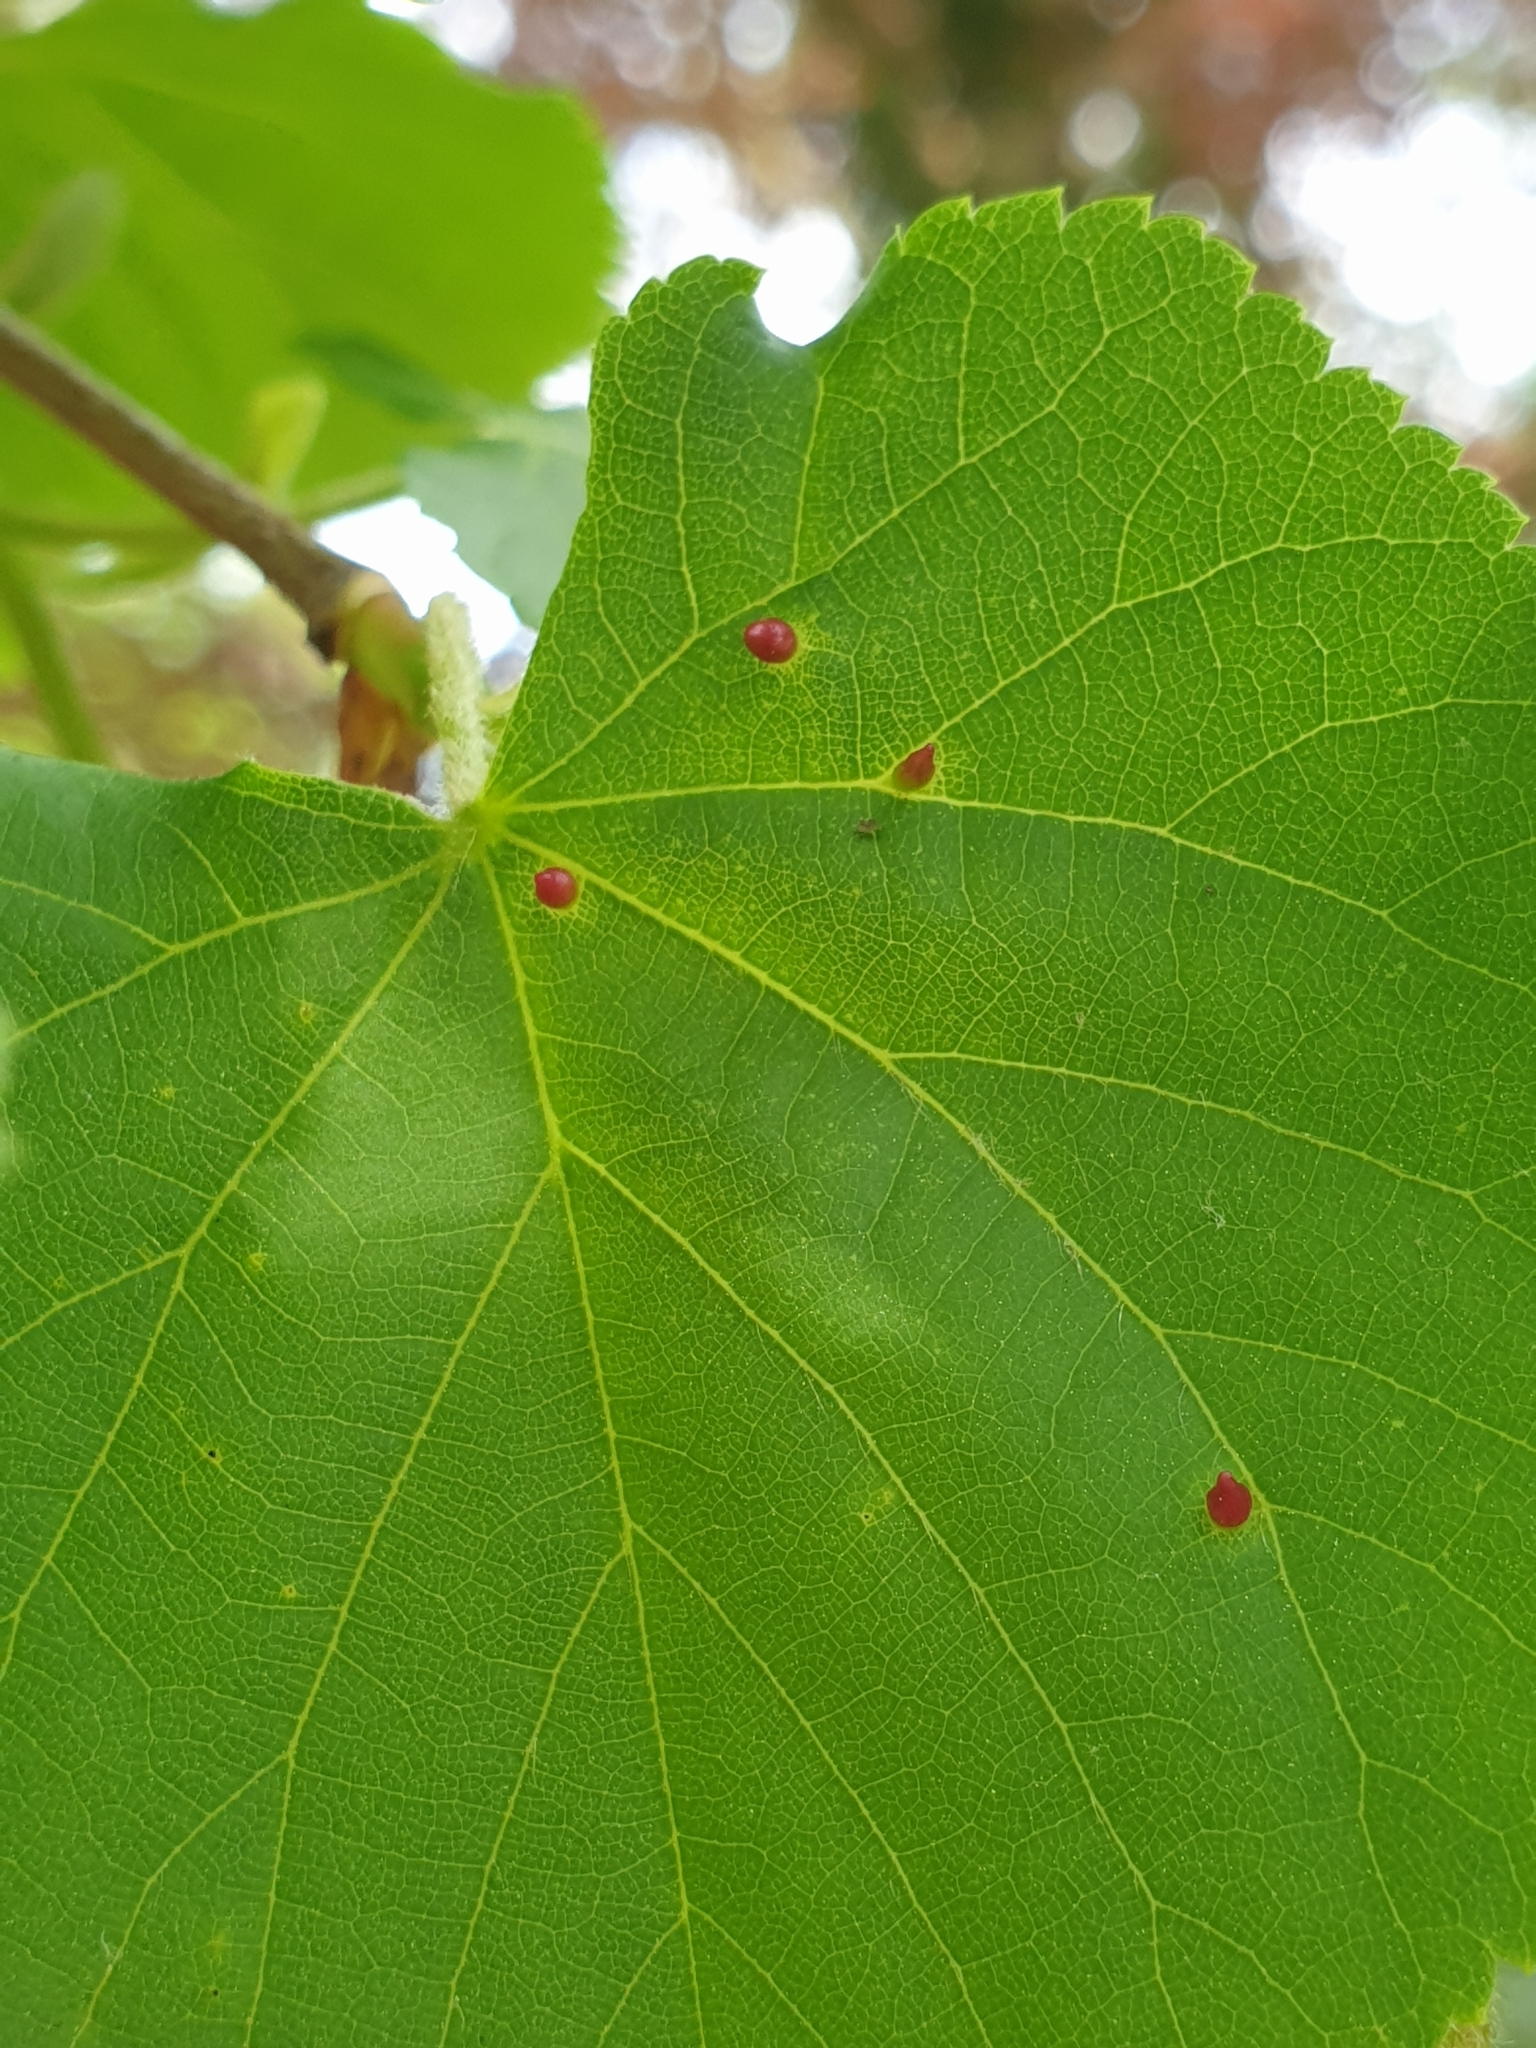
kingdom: Animalia
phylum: Arthropoda
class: Arachnida
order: Trombidiformes
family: Eriophyidae
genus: Eriophyes
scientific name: Eriophyes tiliae
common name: Red nail gall mite
